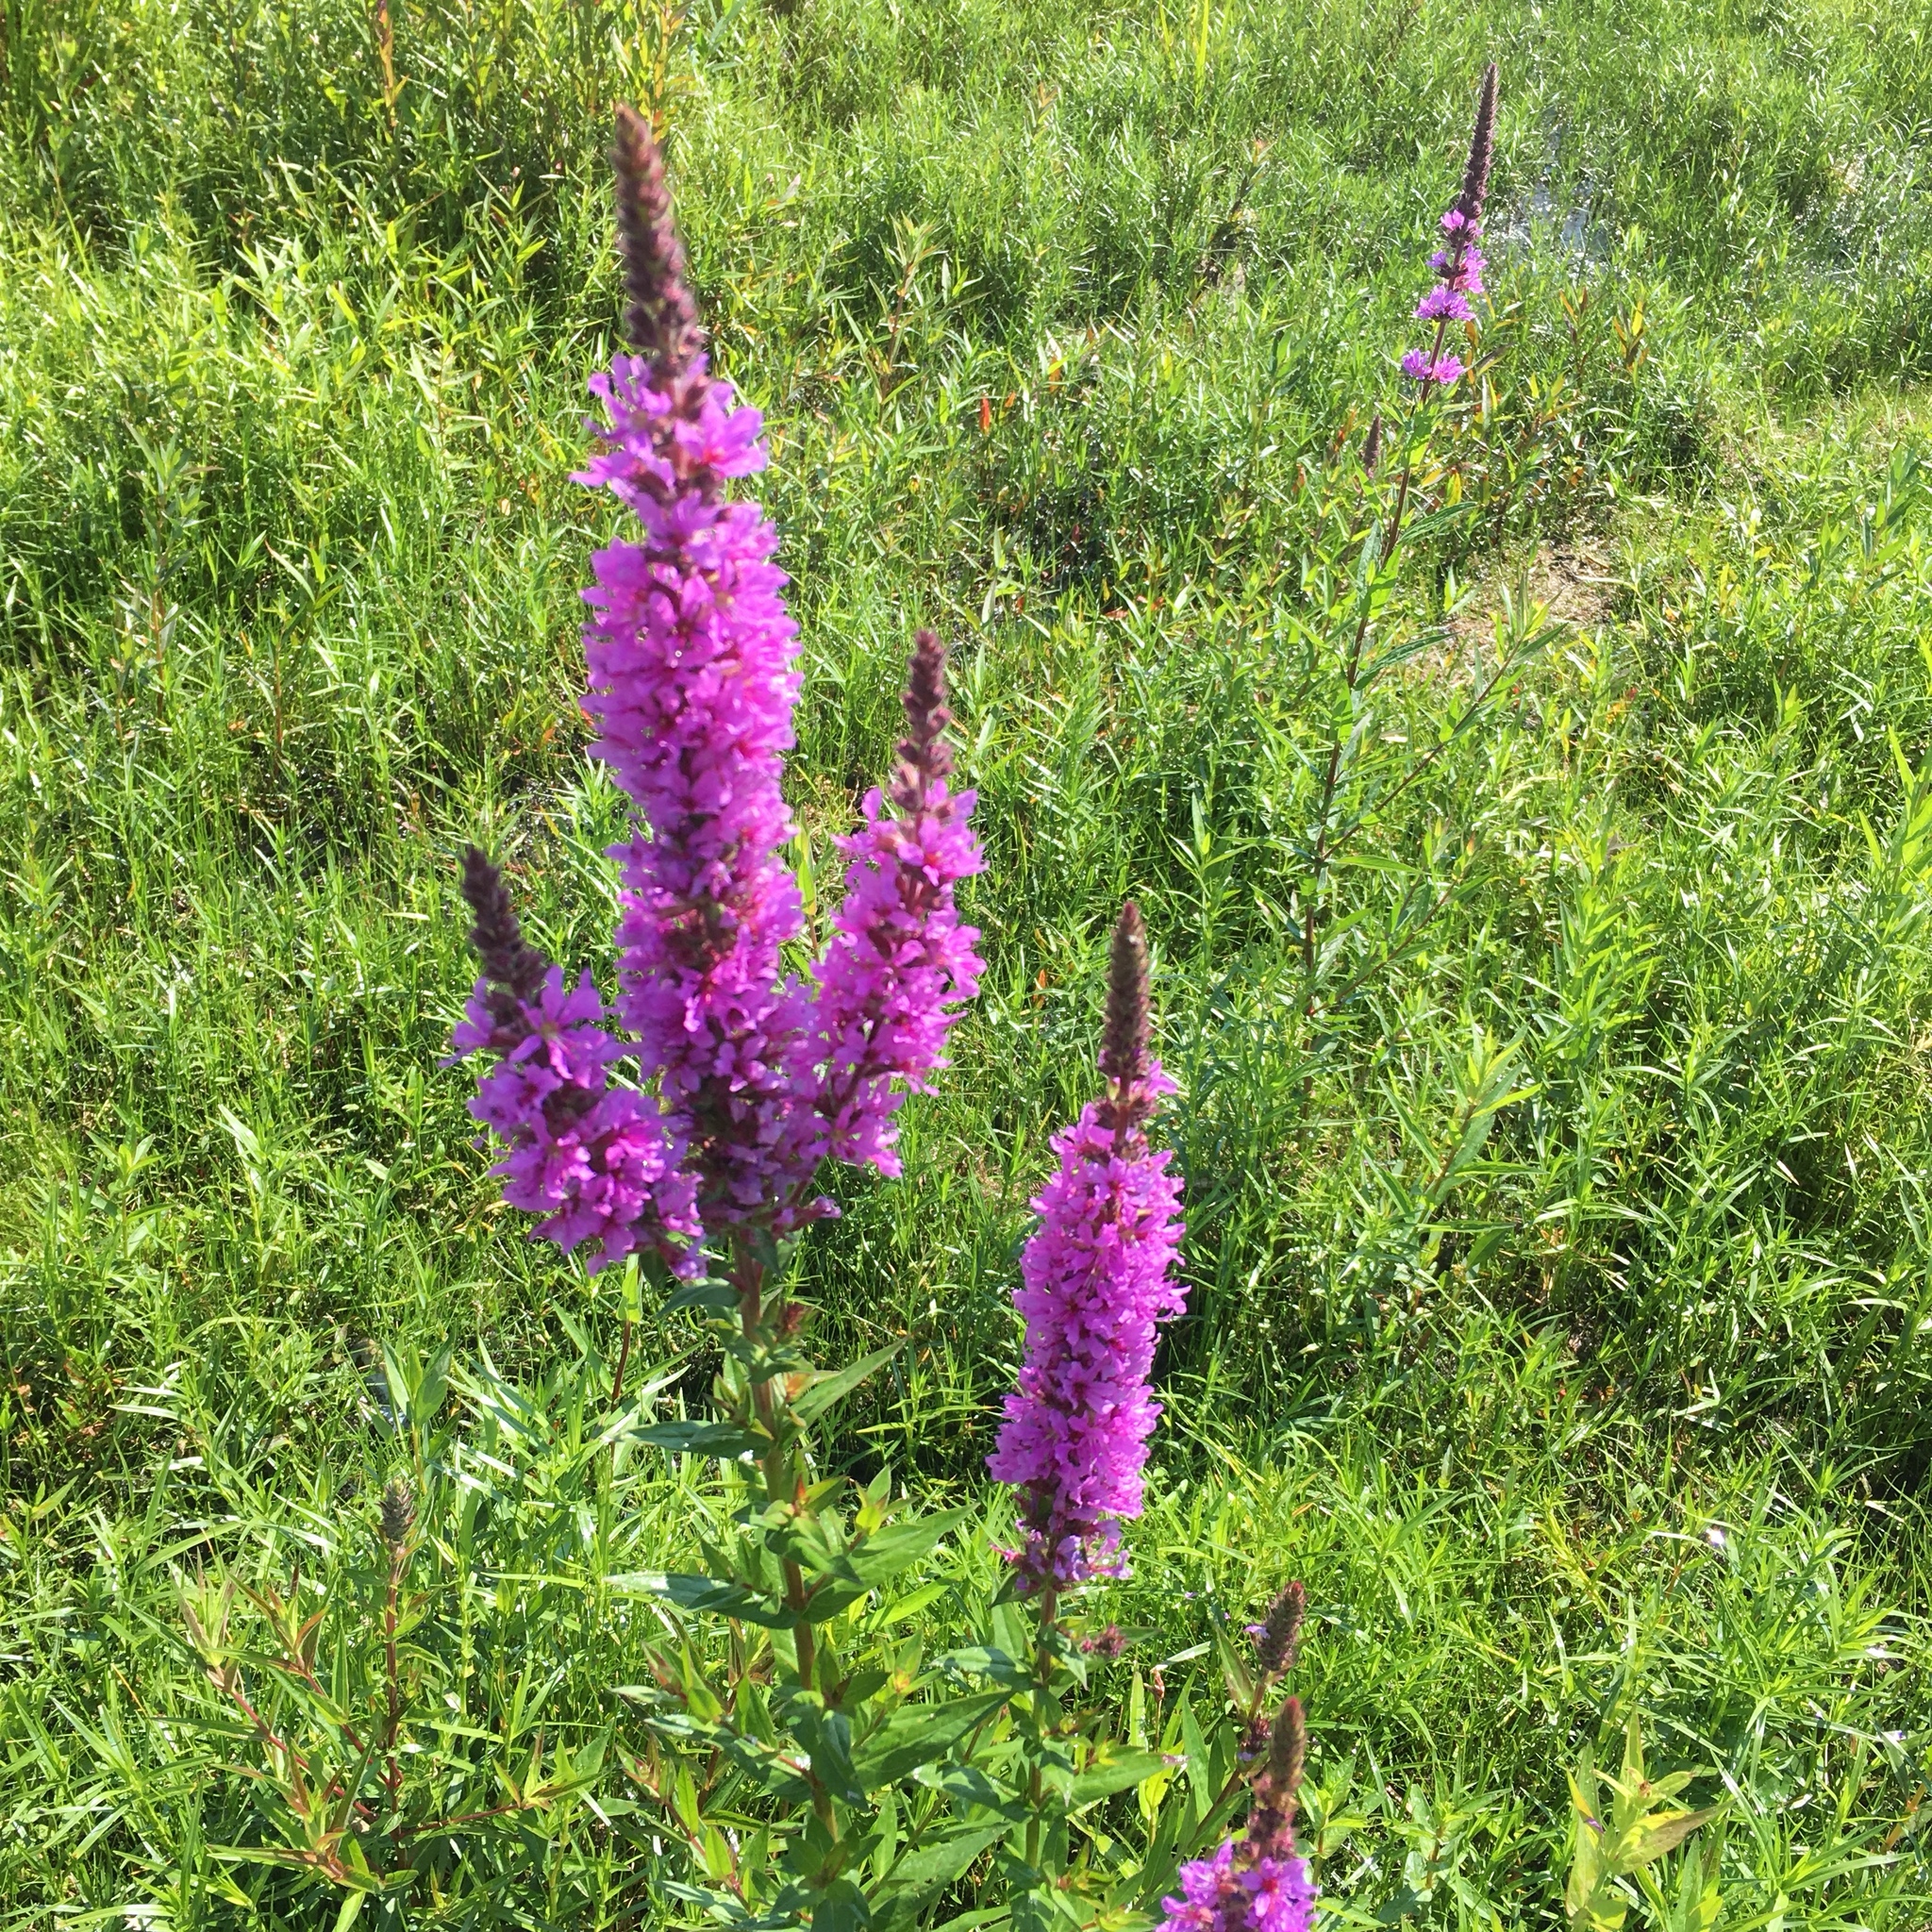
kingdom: Plantae
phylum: Tracheophyta
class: Magnoliopsida
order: Myrtales
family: Lythraceae
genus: Lythrum
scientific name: Lythrum salicaria
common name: Purple loosestrife
